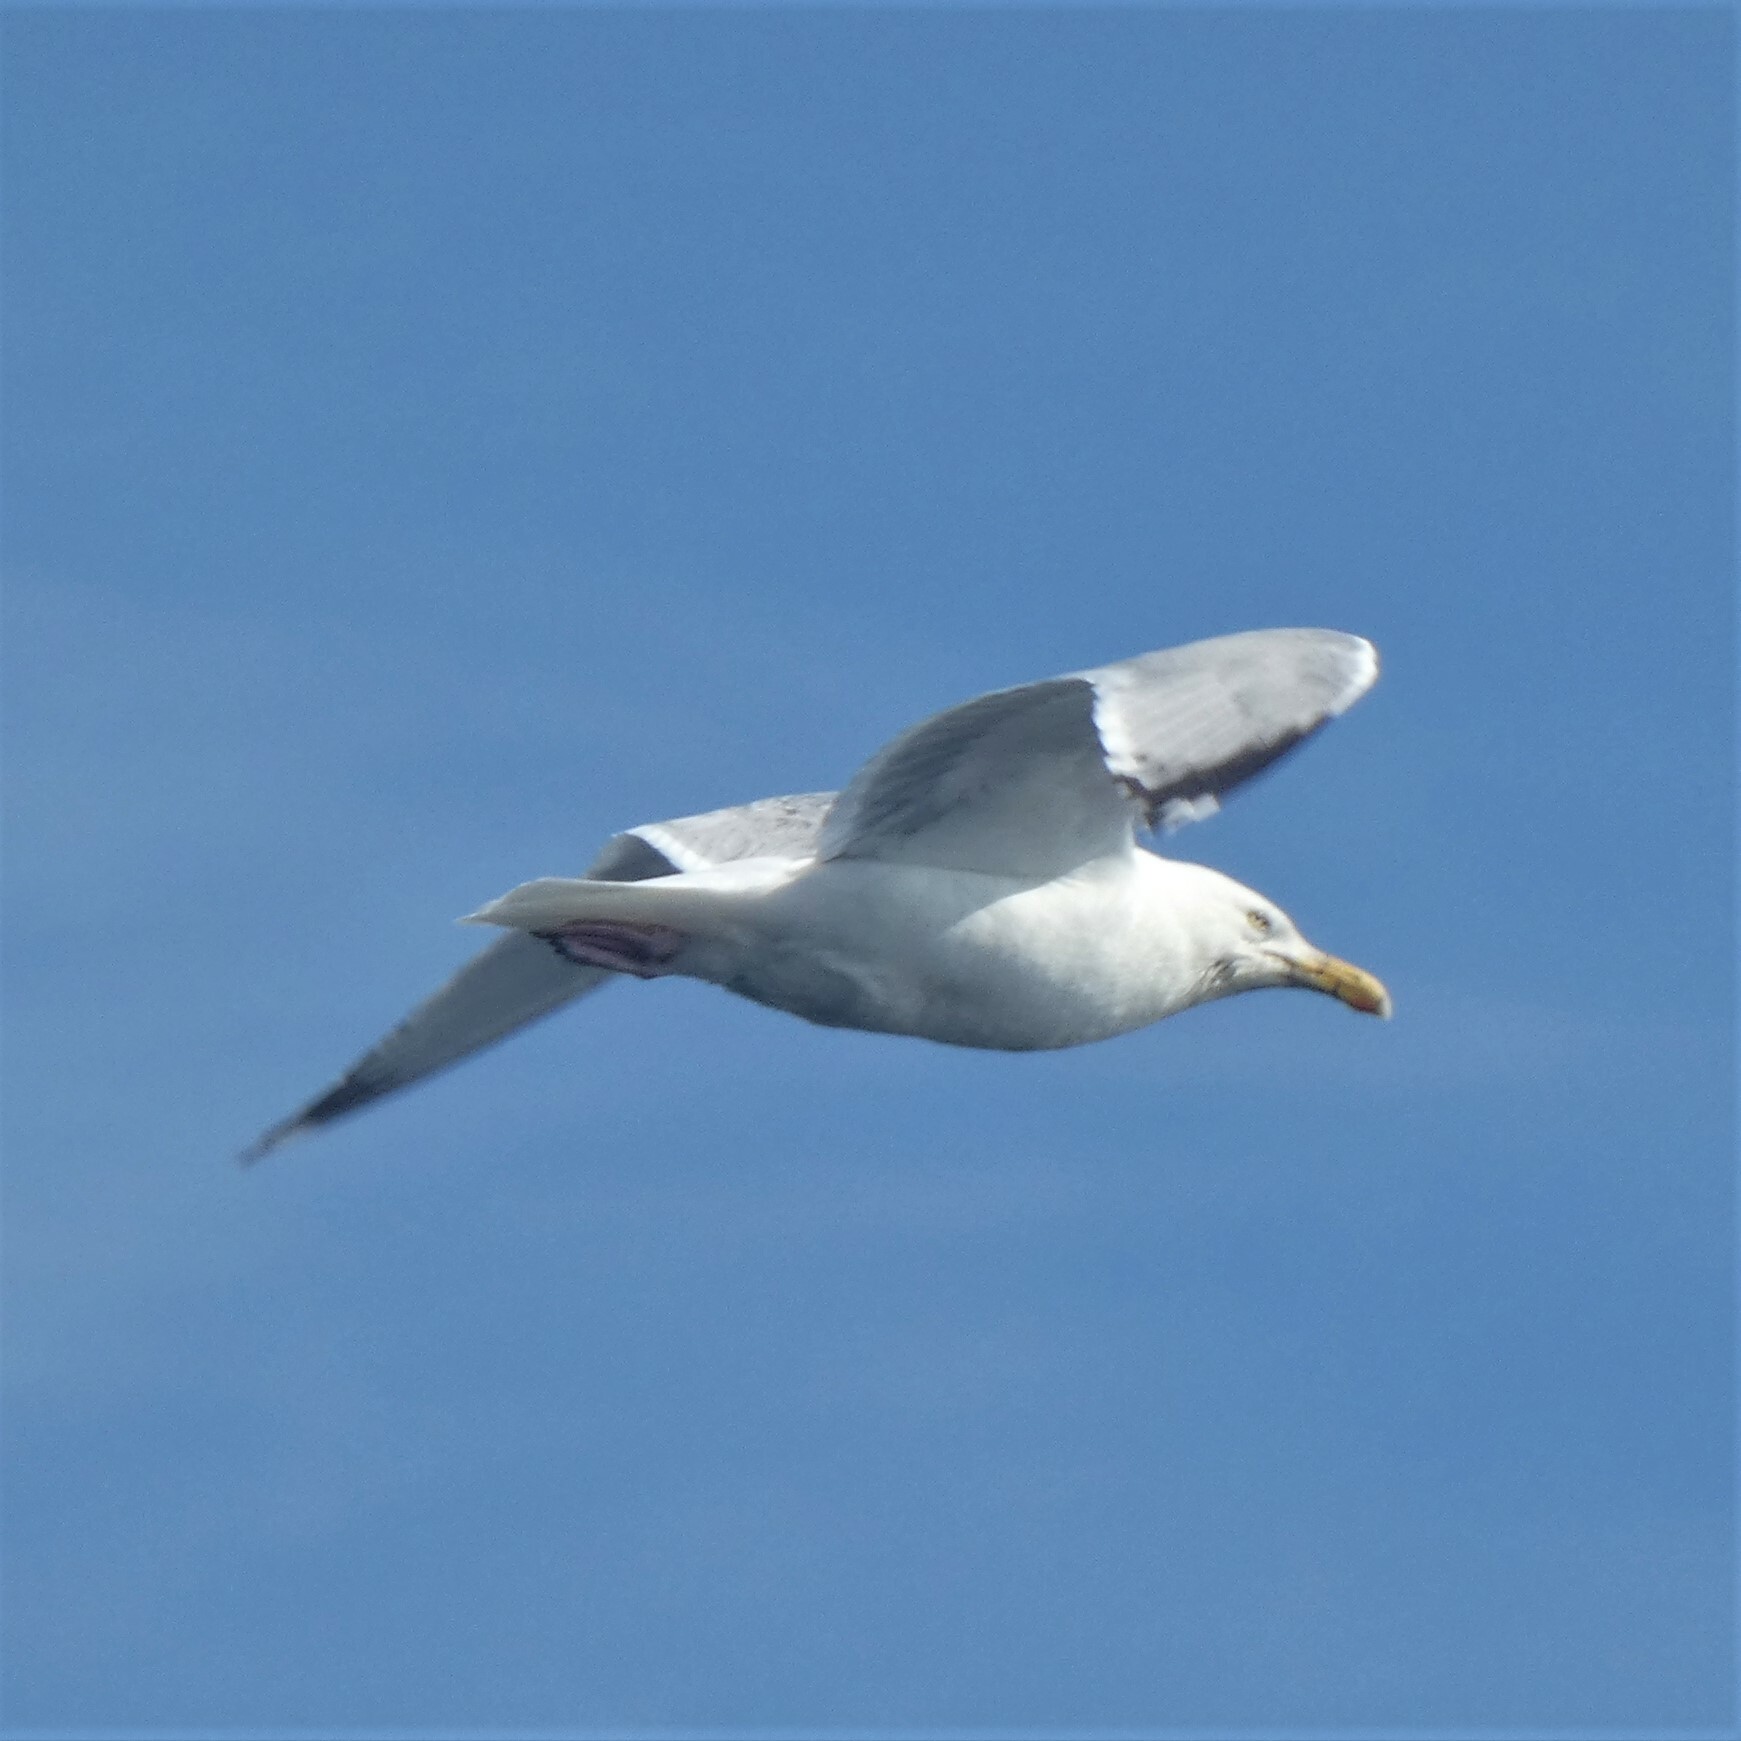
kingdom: Animalia
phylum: Chordata
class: Aves
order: Charadriiformes
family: Laridae
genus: Larus
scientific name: Larus argentatus
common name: Herring gull
